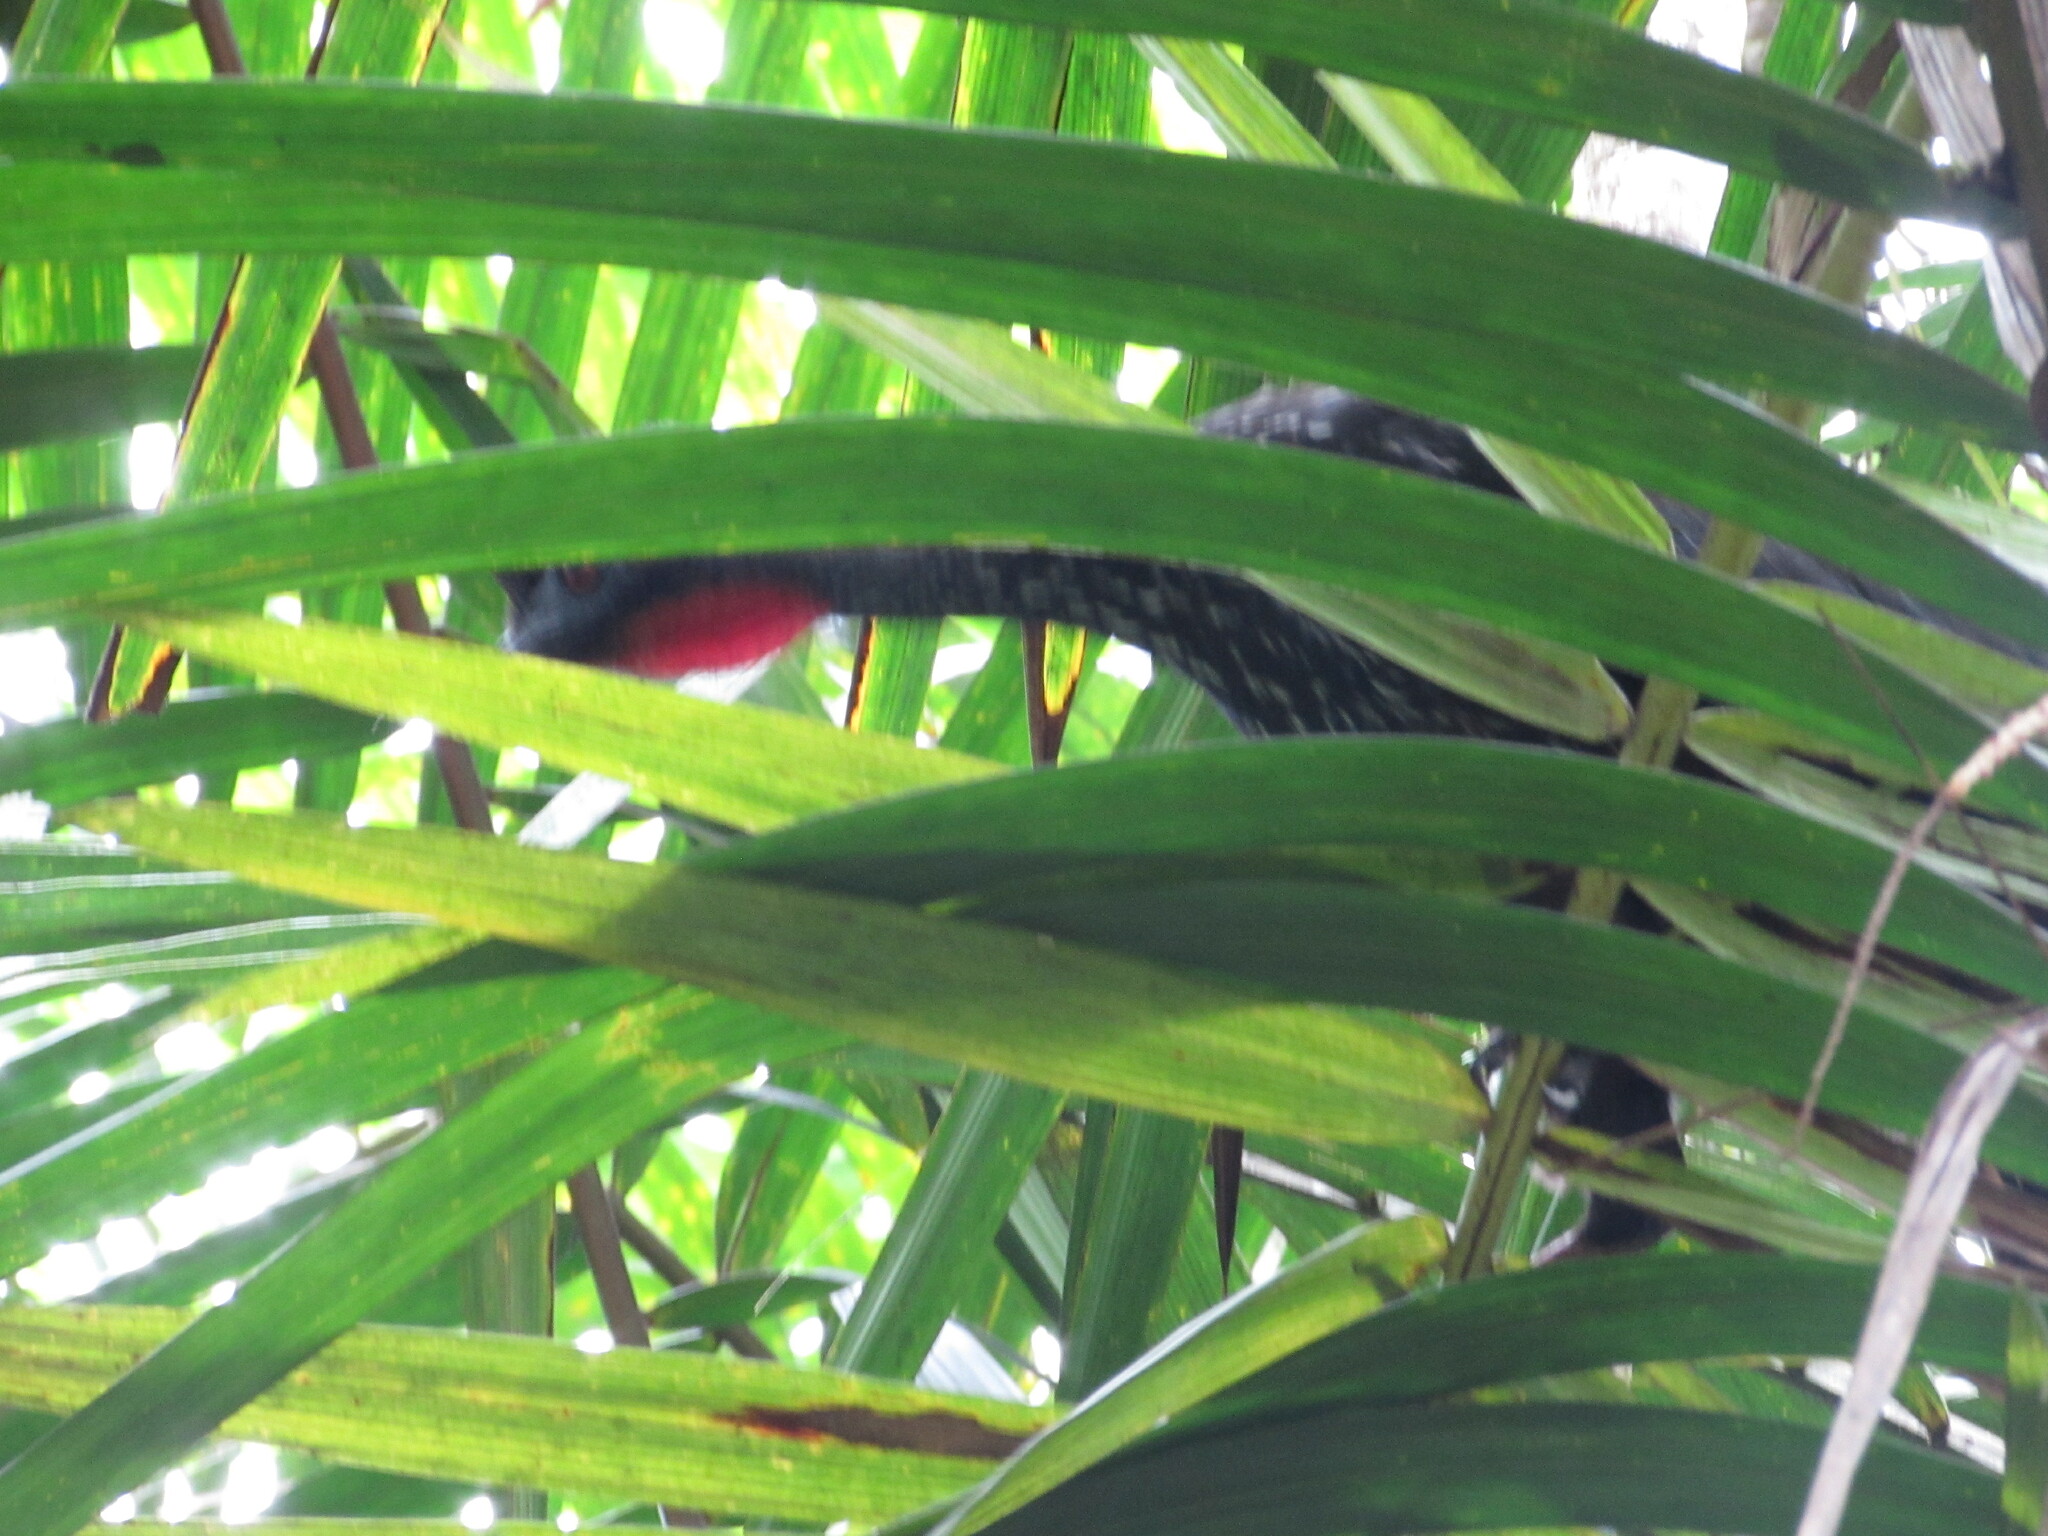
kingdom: Animalia
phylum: Chordata
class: Aves
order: Galliformes
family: Cracidae
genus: Penelope
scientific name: Penelope purpurascens
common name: Crested guan
